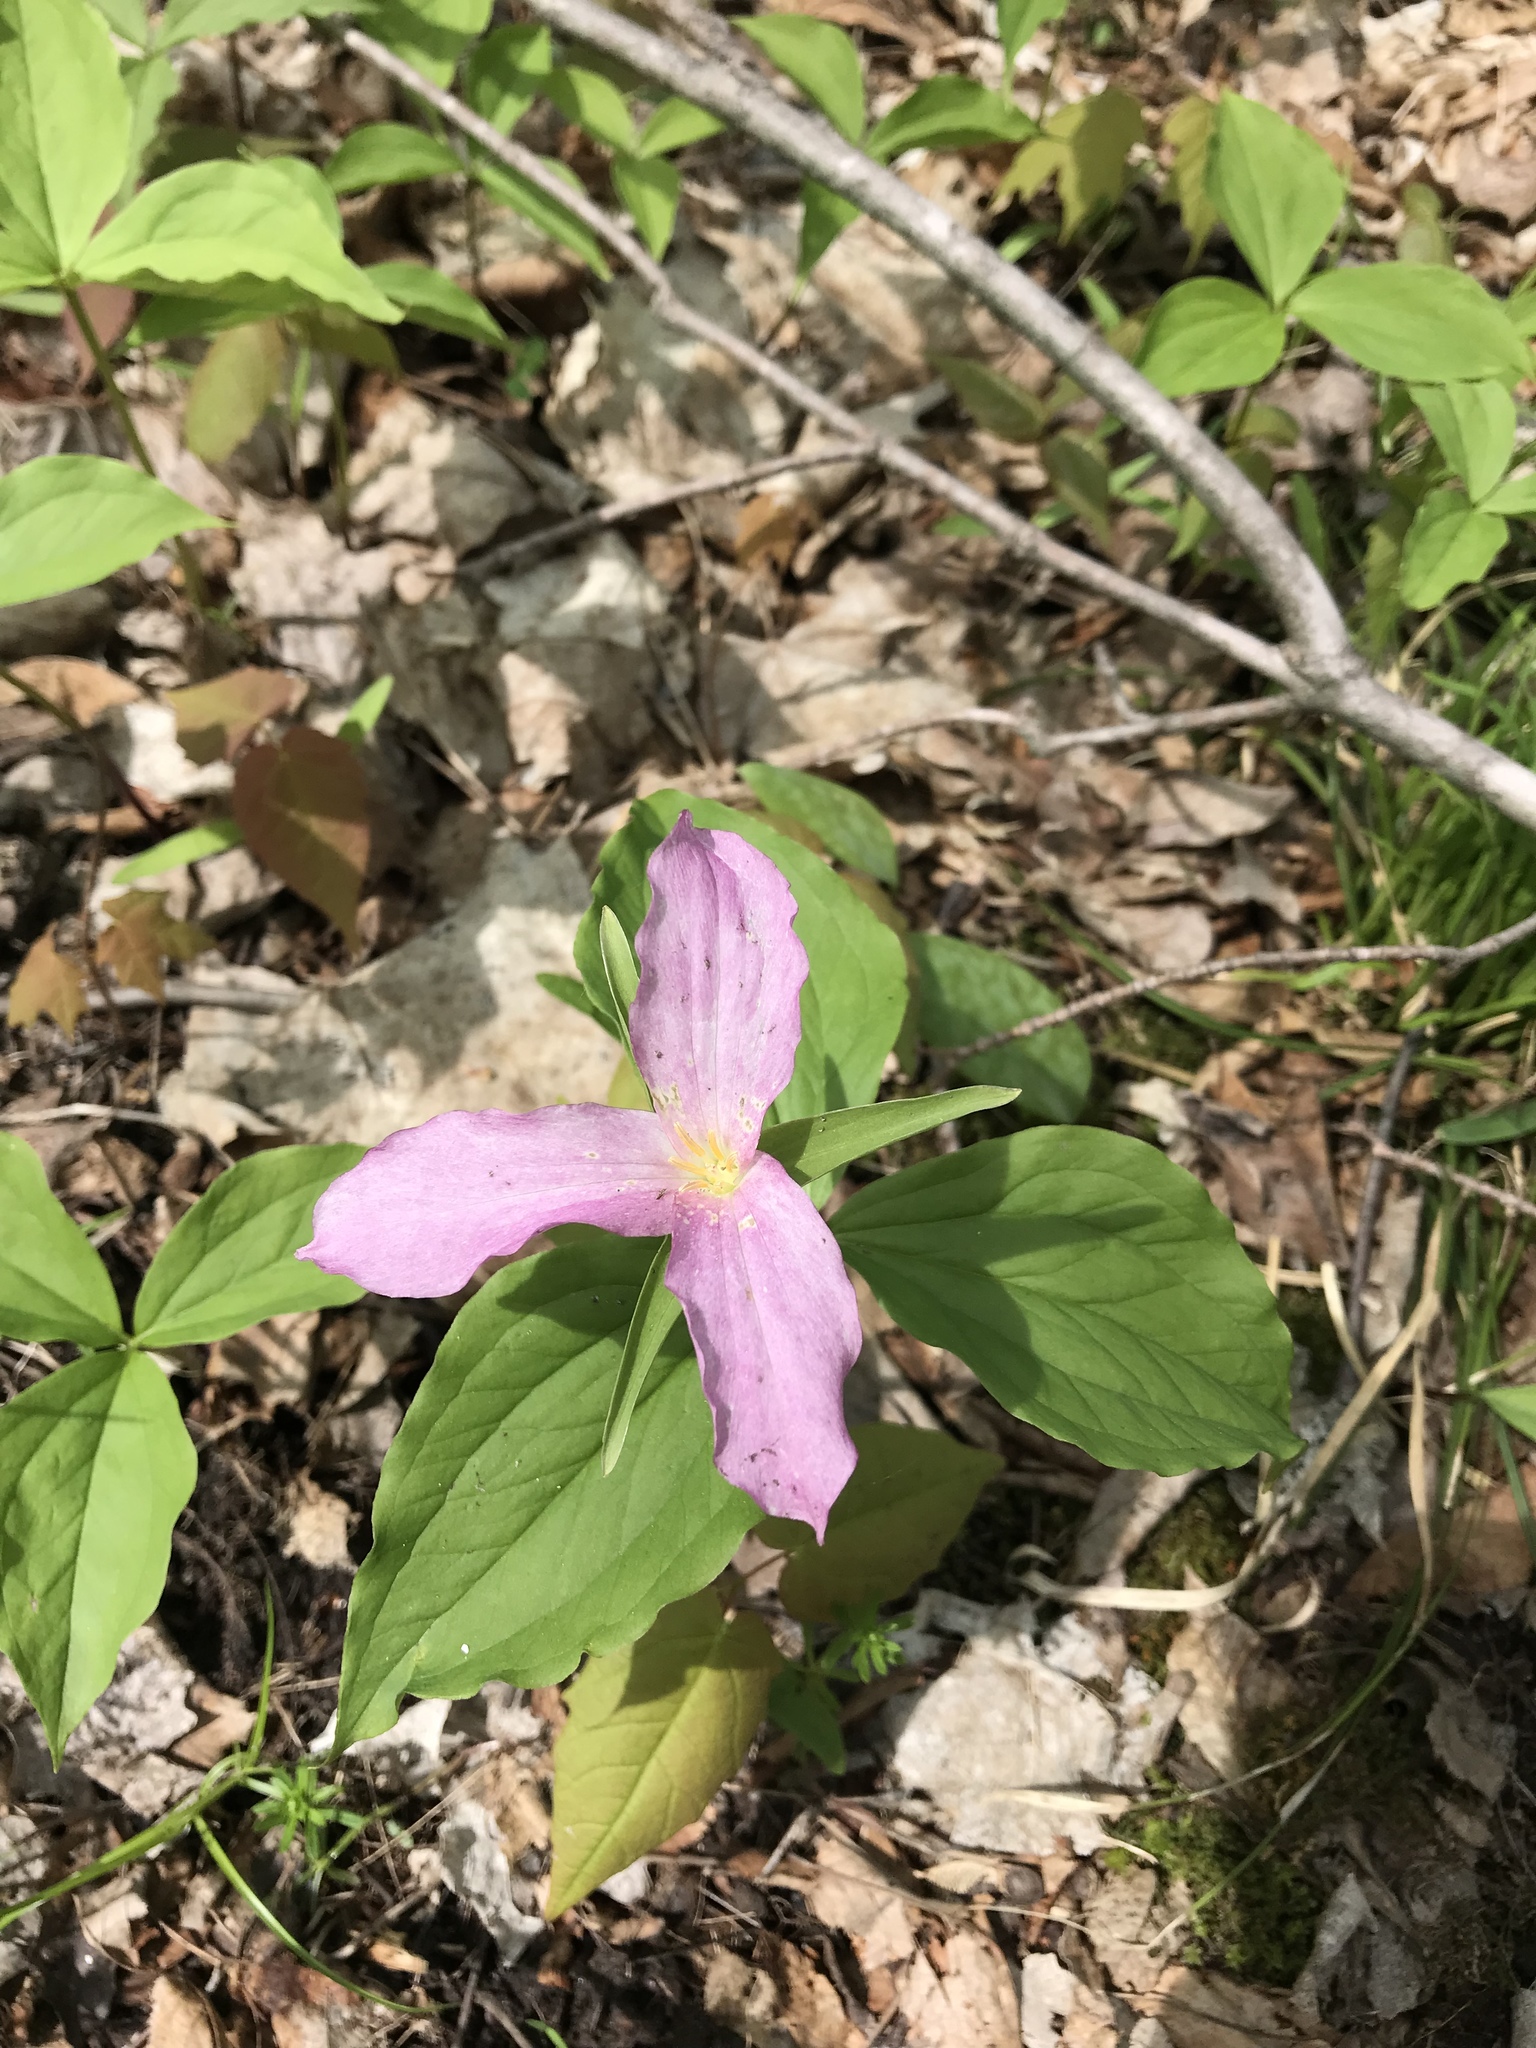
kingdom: Plantae
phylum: Tracheophyta
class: Liliopsida
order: Liliales
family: Melanthiaceae
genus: Trillium
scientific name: Trillium grandiflorum
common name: Great white trillium
